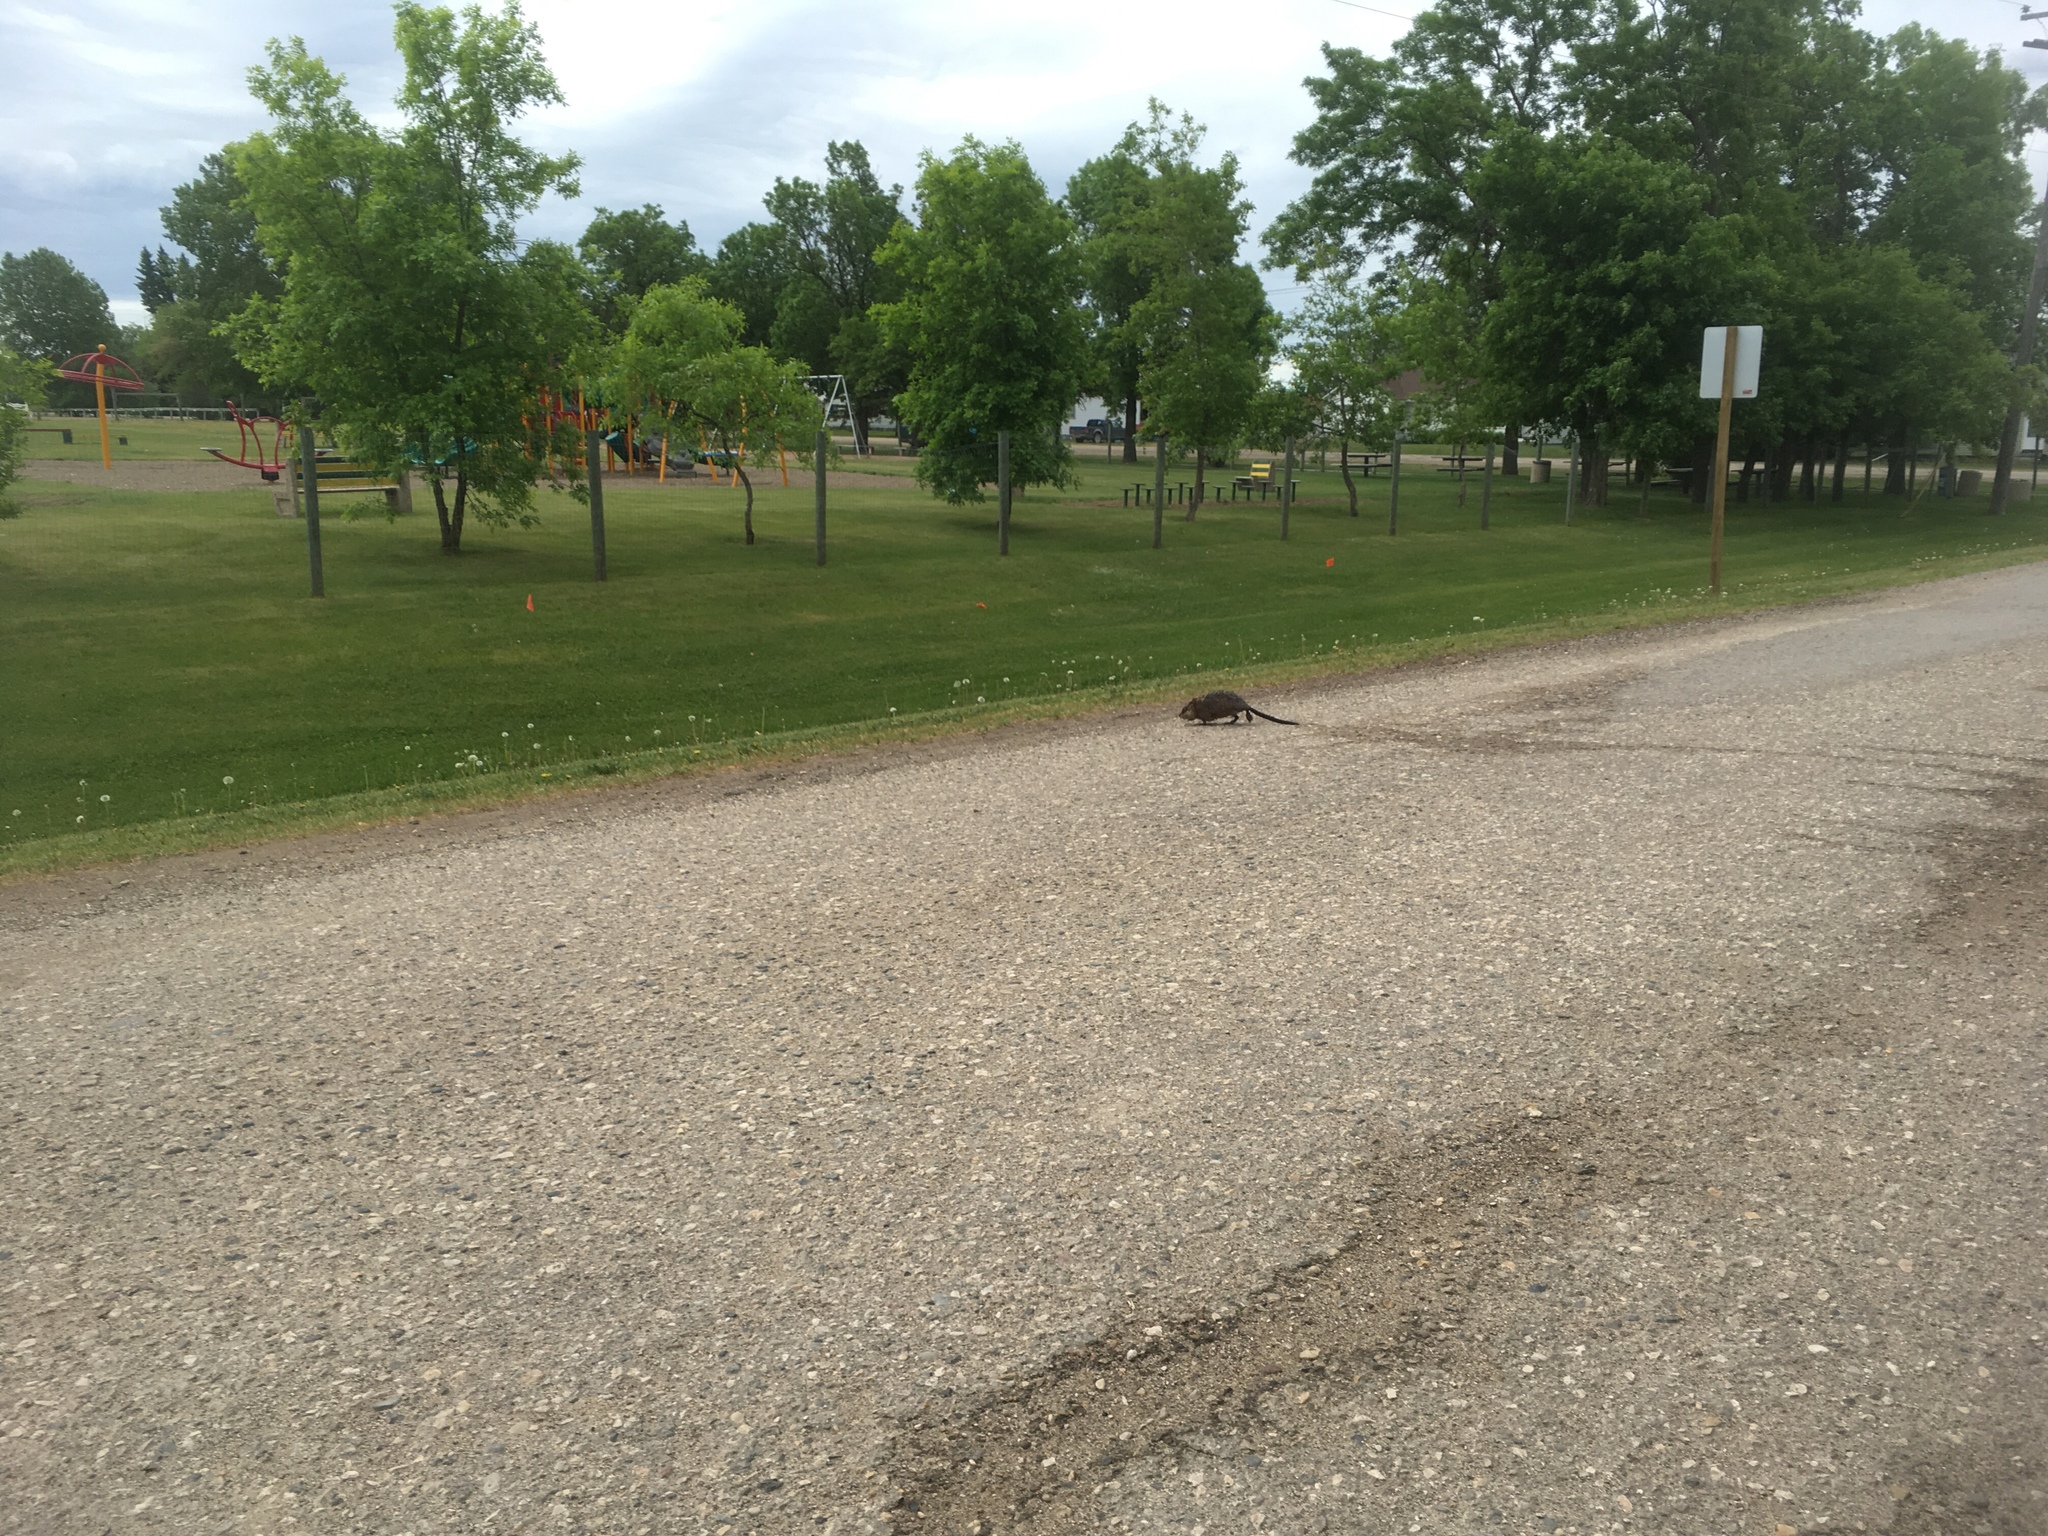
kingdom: Animalia
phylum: Chordata
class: Mammalia
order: Rodentia
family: Cricetidae
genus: Ondatra
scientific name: Ondatra zibethicus
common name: Muskrat
